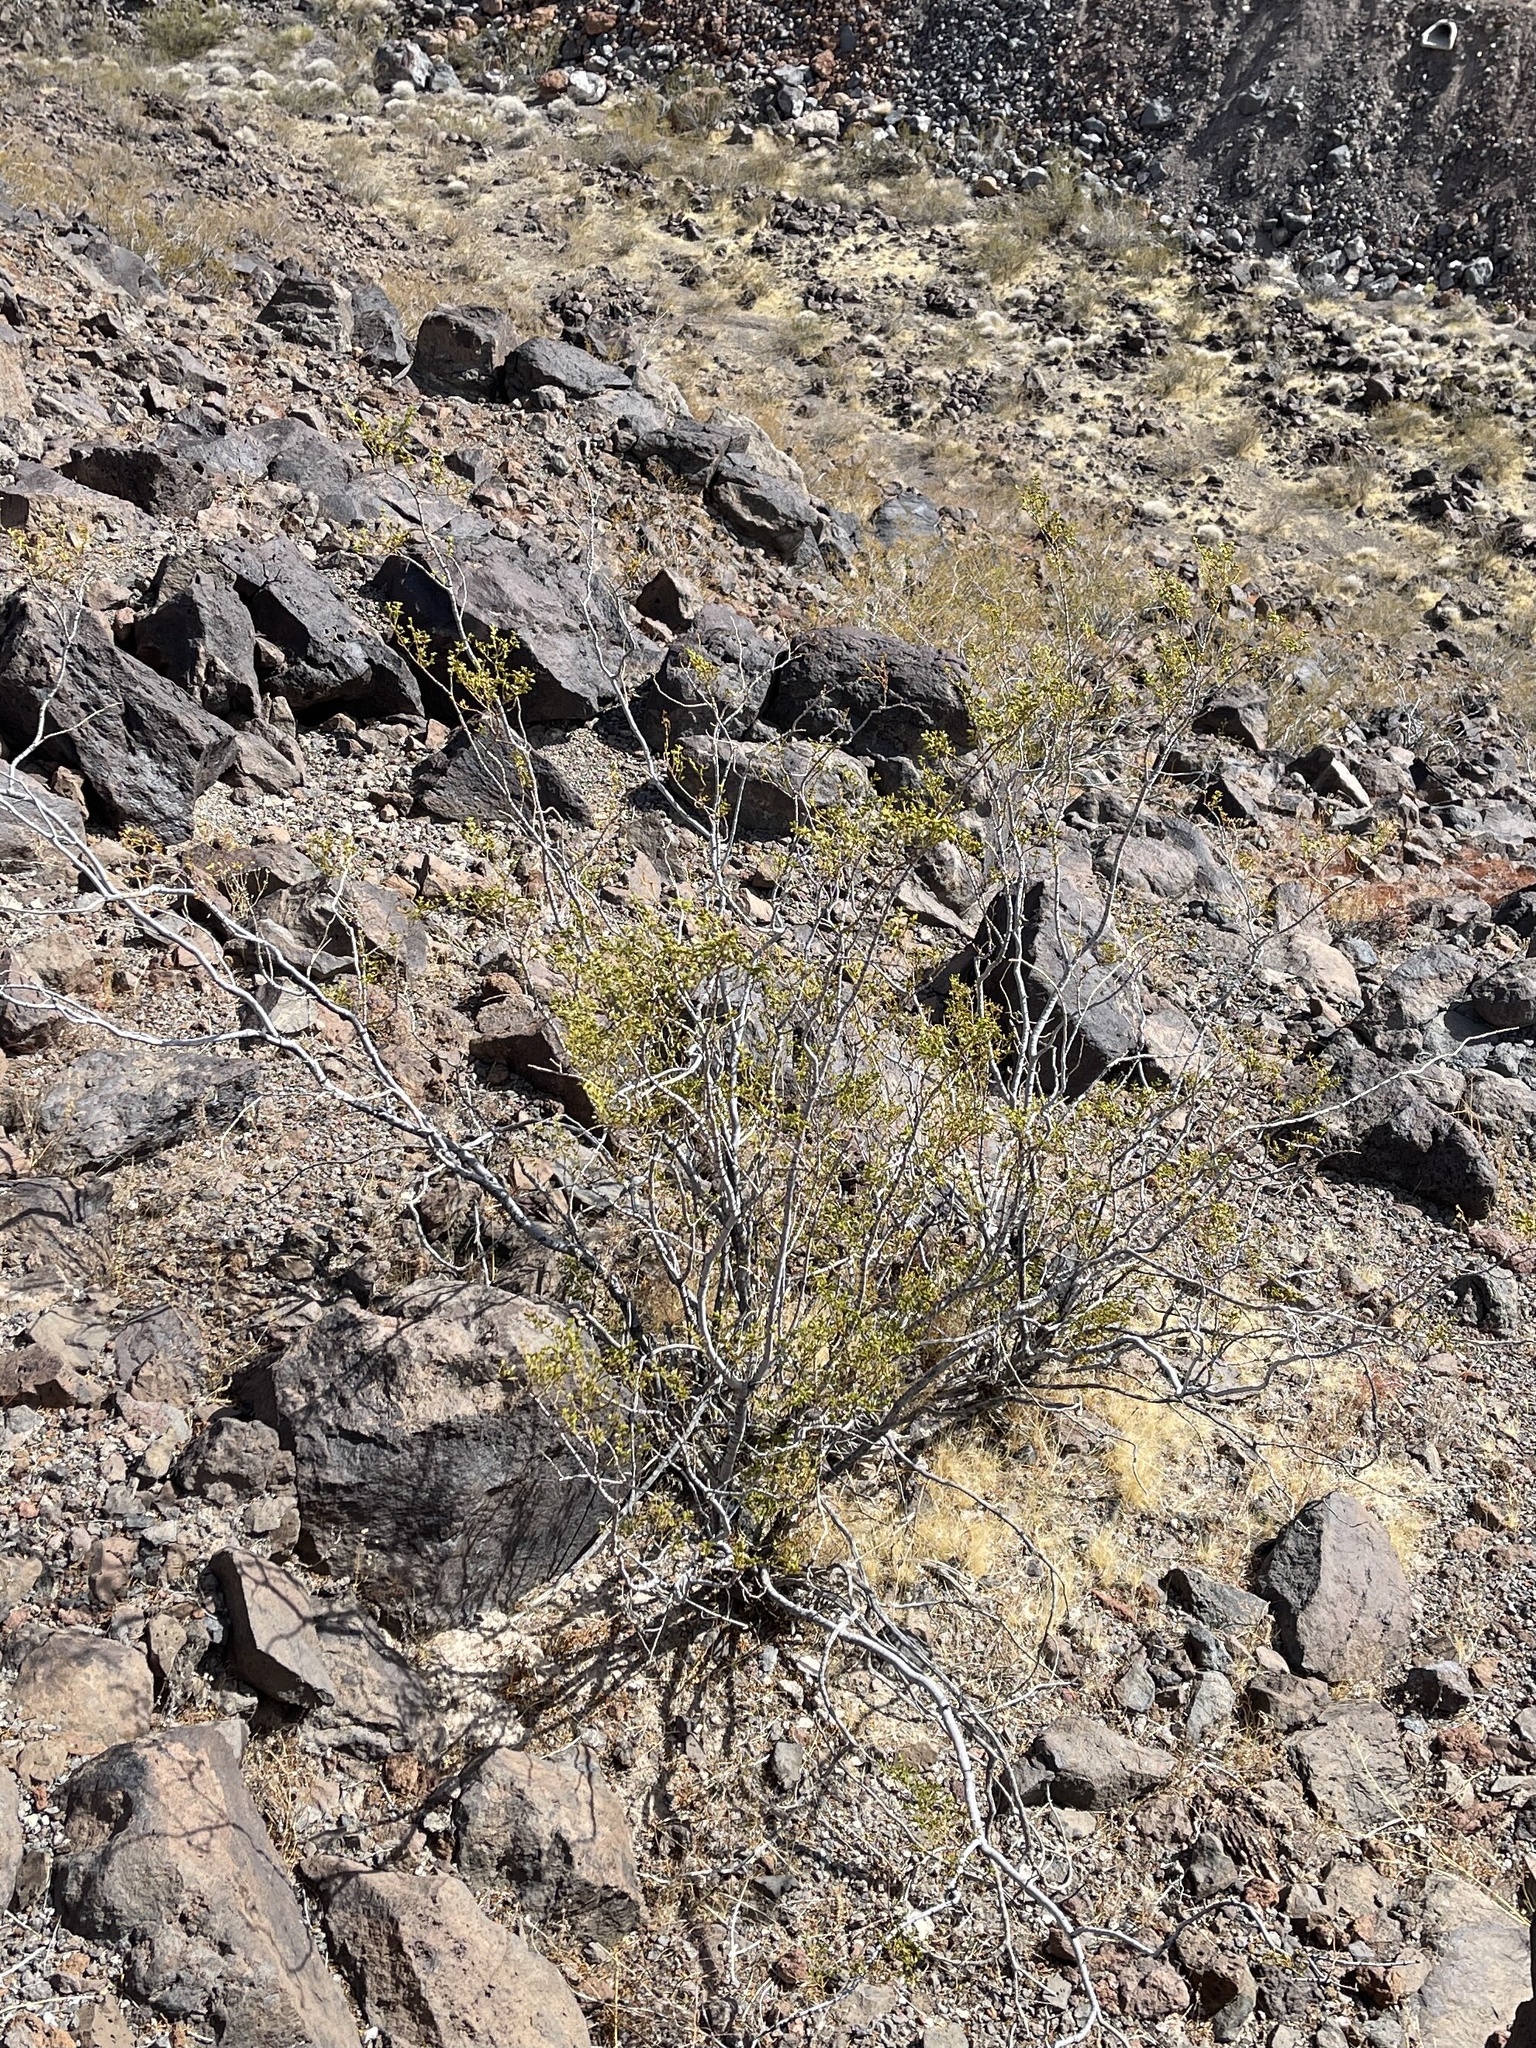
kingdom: Plantae
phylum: Tracheophyta
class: Magnoliopsida
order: Zygophyllales
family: Zygophyllaceae
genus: Larrea
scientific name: Larrea tridentata
